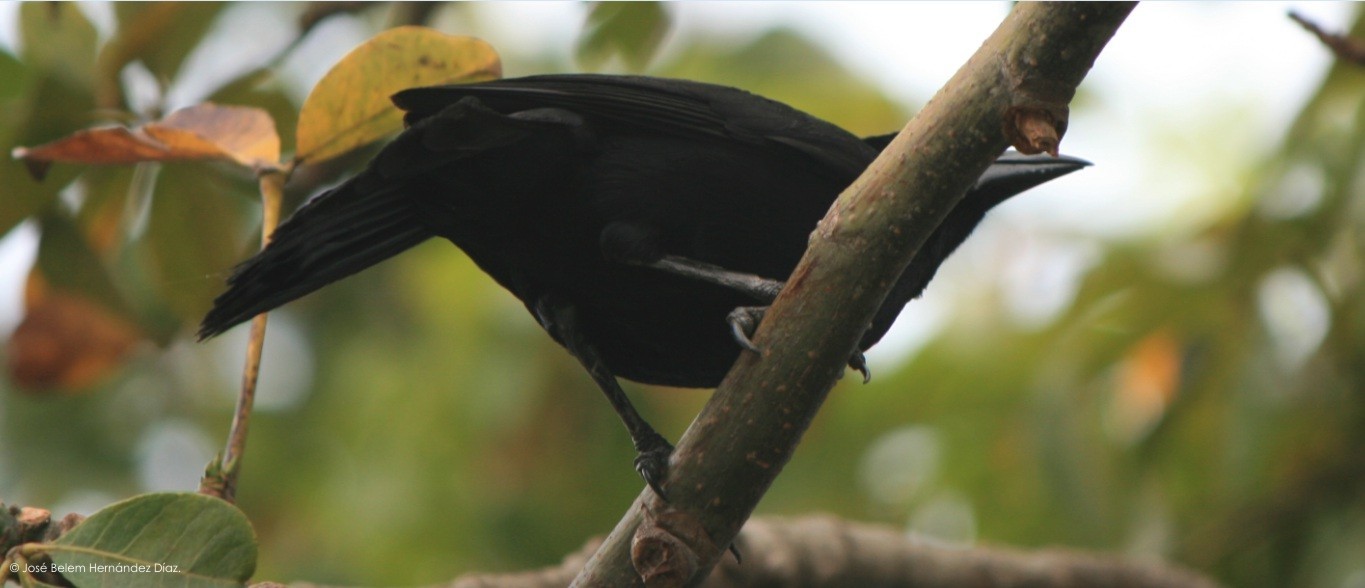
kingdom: Animalia
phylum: Chordata
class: Aves
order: Passeriformes
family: Icteridae
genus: Dives
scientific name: Dives dives
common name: Melodious blackbird
